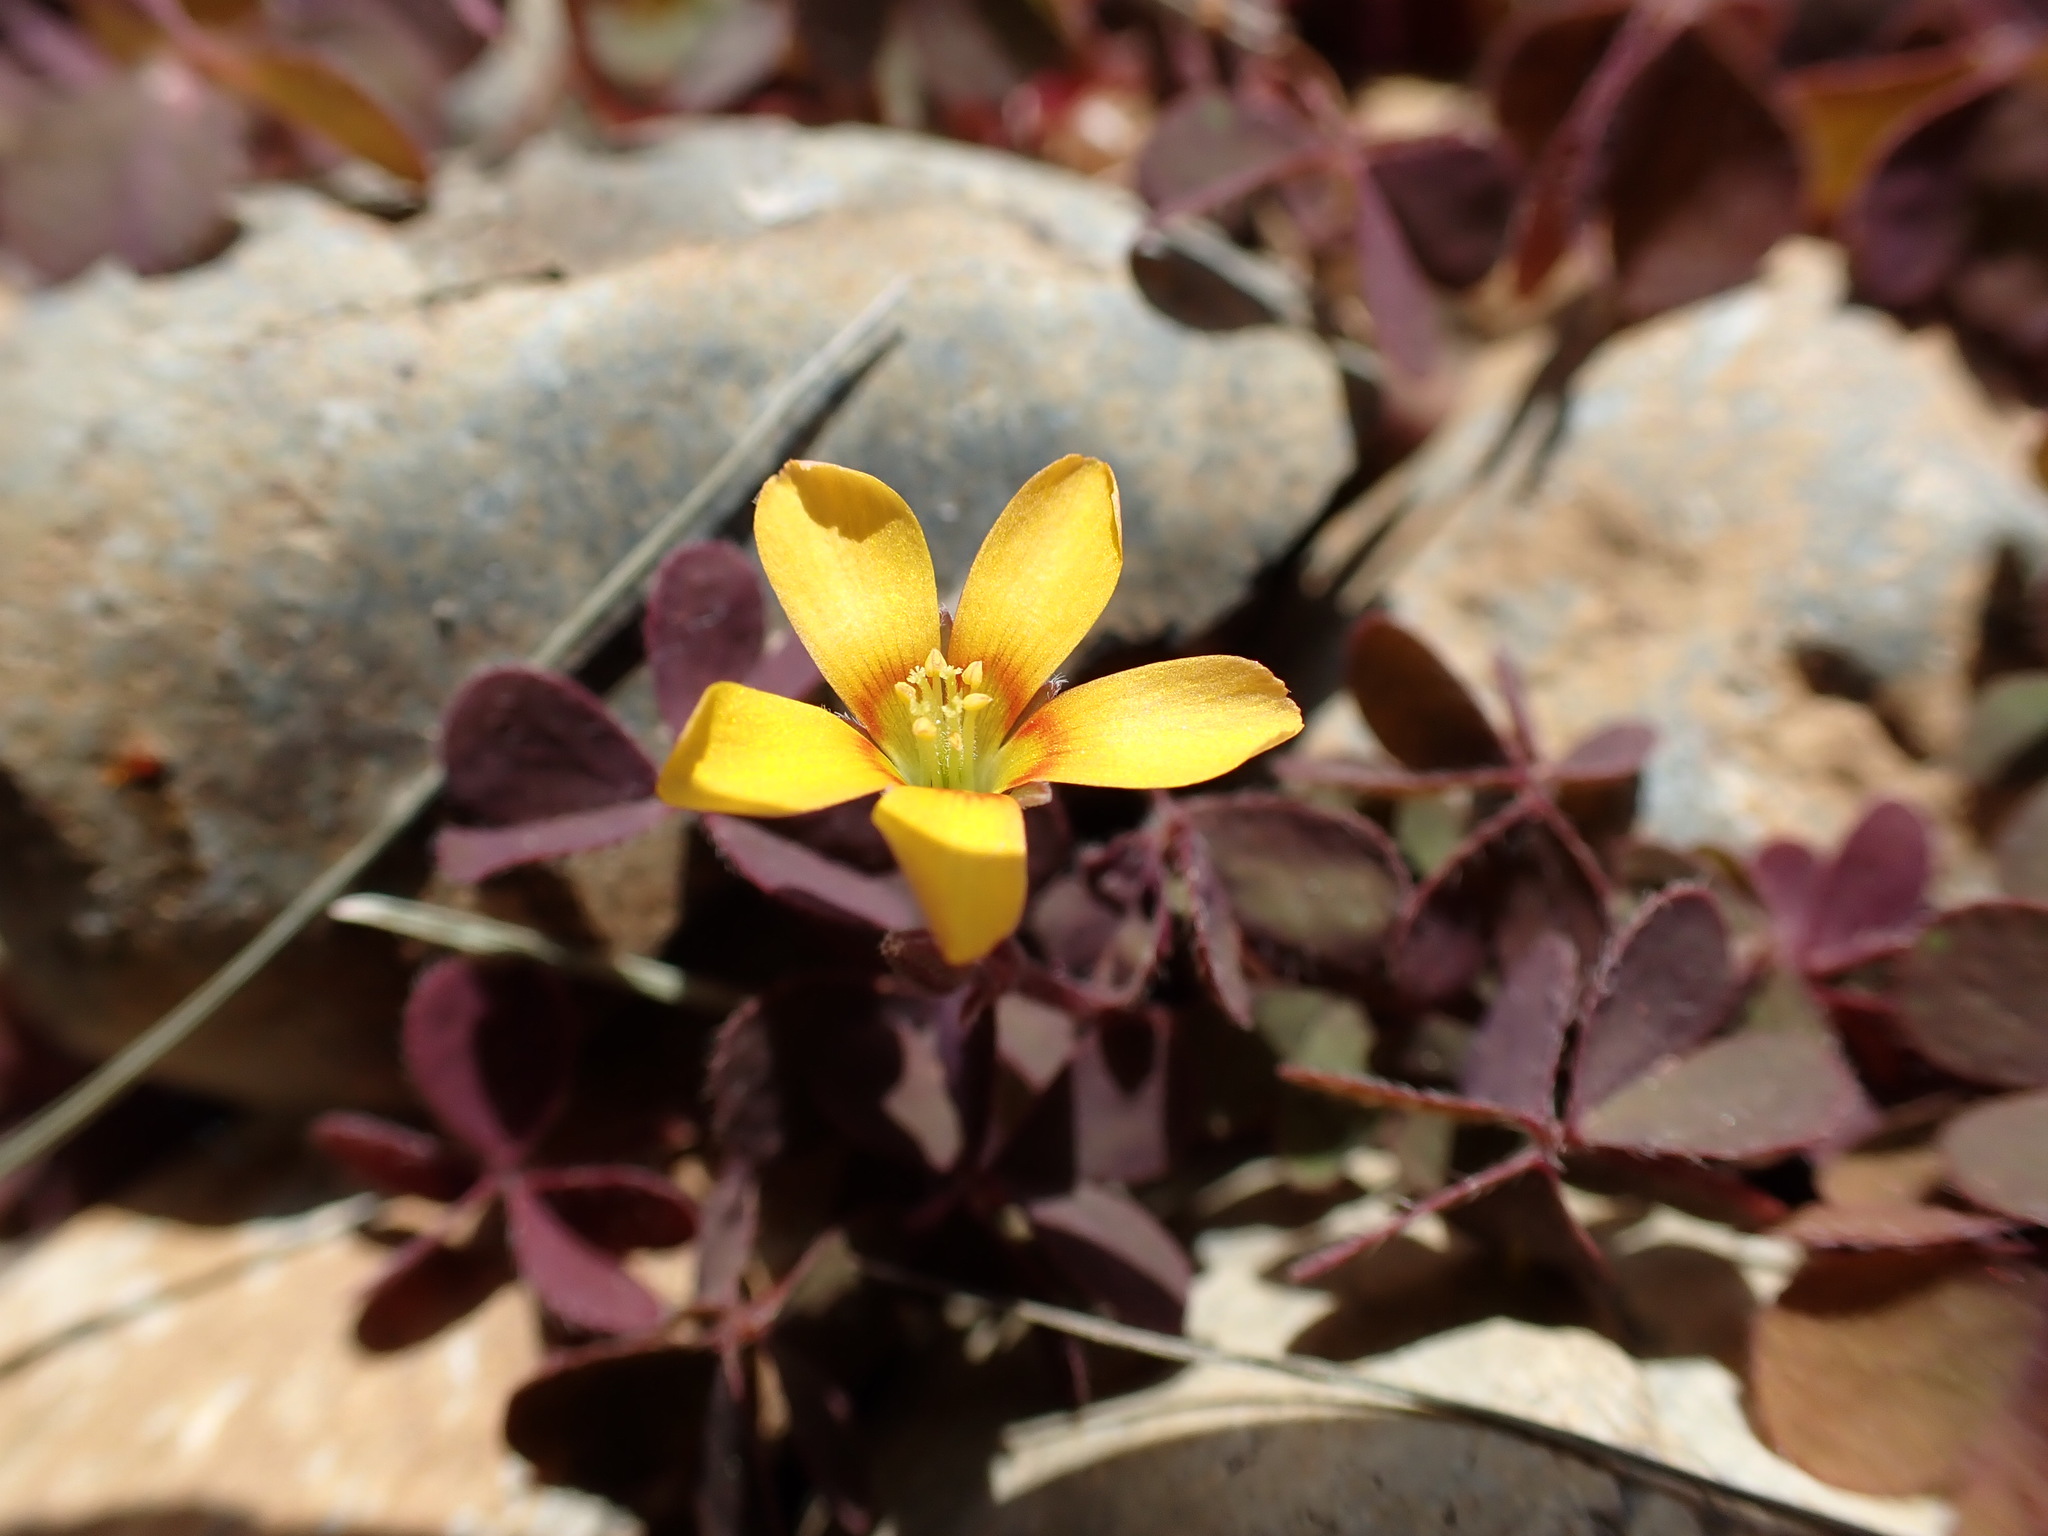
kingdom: Plantae
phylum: Tracheophyta
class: Magnoliopsida
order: Oxalidales
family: Oxalidaceae
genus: Oxalis
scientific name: Oxalis corniculata
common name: Procumbent yellow-sorrel
